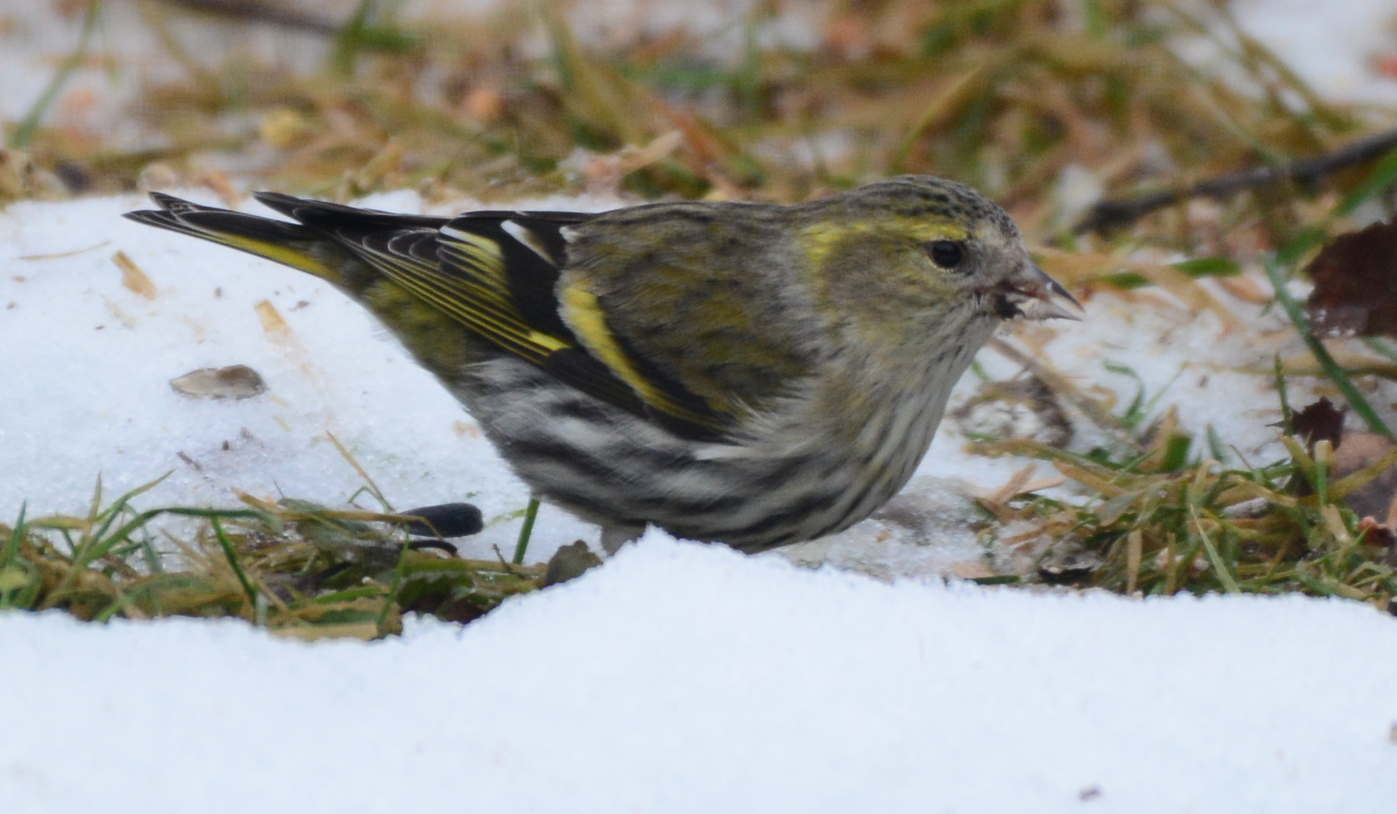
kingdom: Animalia
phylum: Chordata
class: Aves
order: Passeriformes
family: Fringillidae
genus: Spinus
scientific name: Spinus spinus
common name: Eurasian siskin
